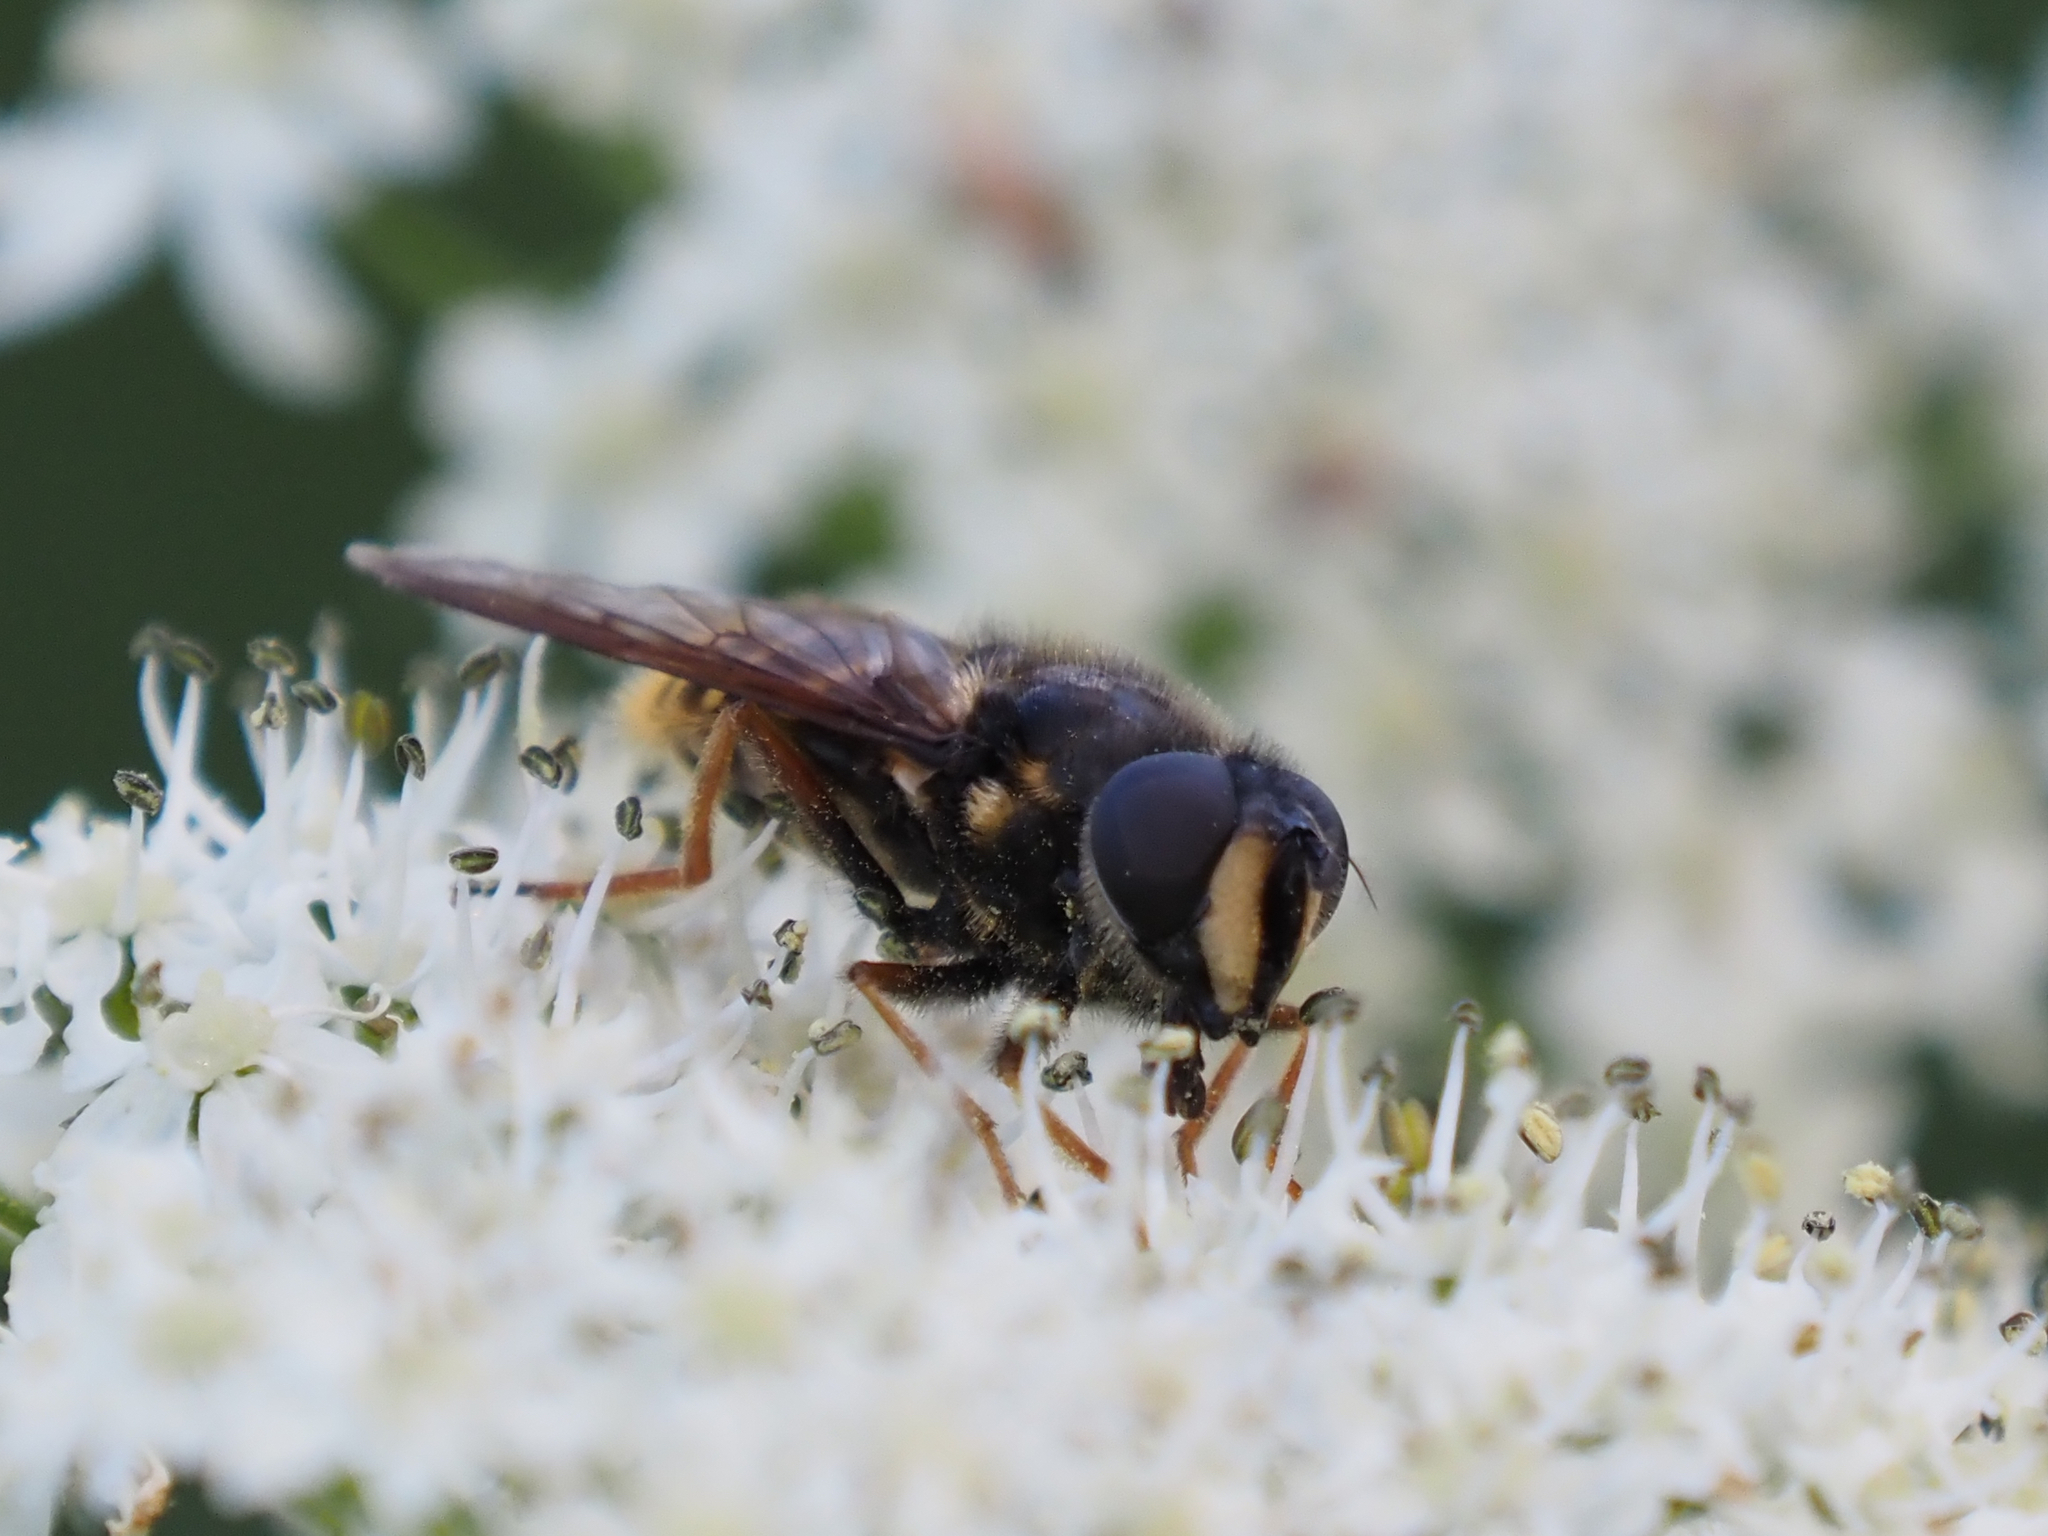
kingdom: Animalia
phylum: Arthropoda
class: Insecta
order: Diptera
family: Syrphidae
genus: Sericomyia
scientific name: Sericomyia chalcopyga
